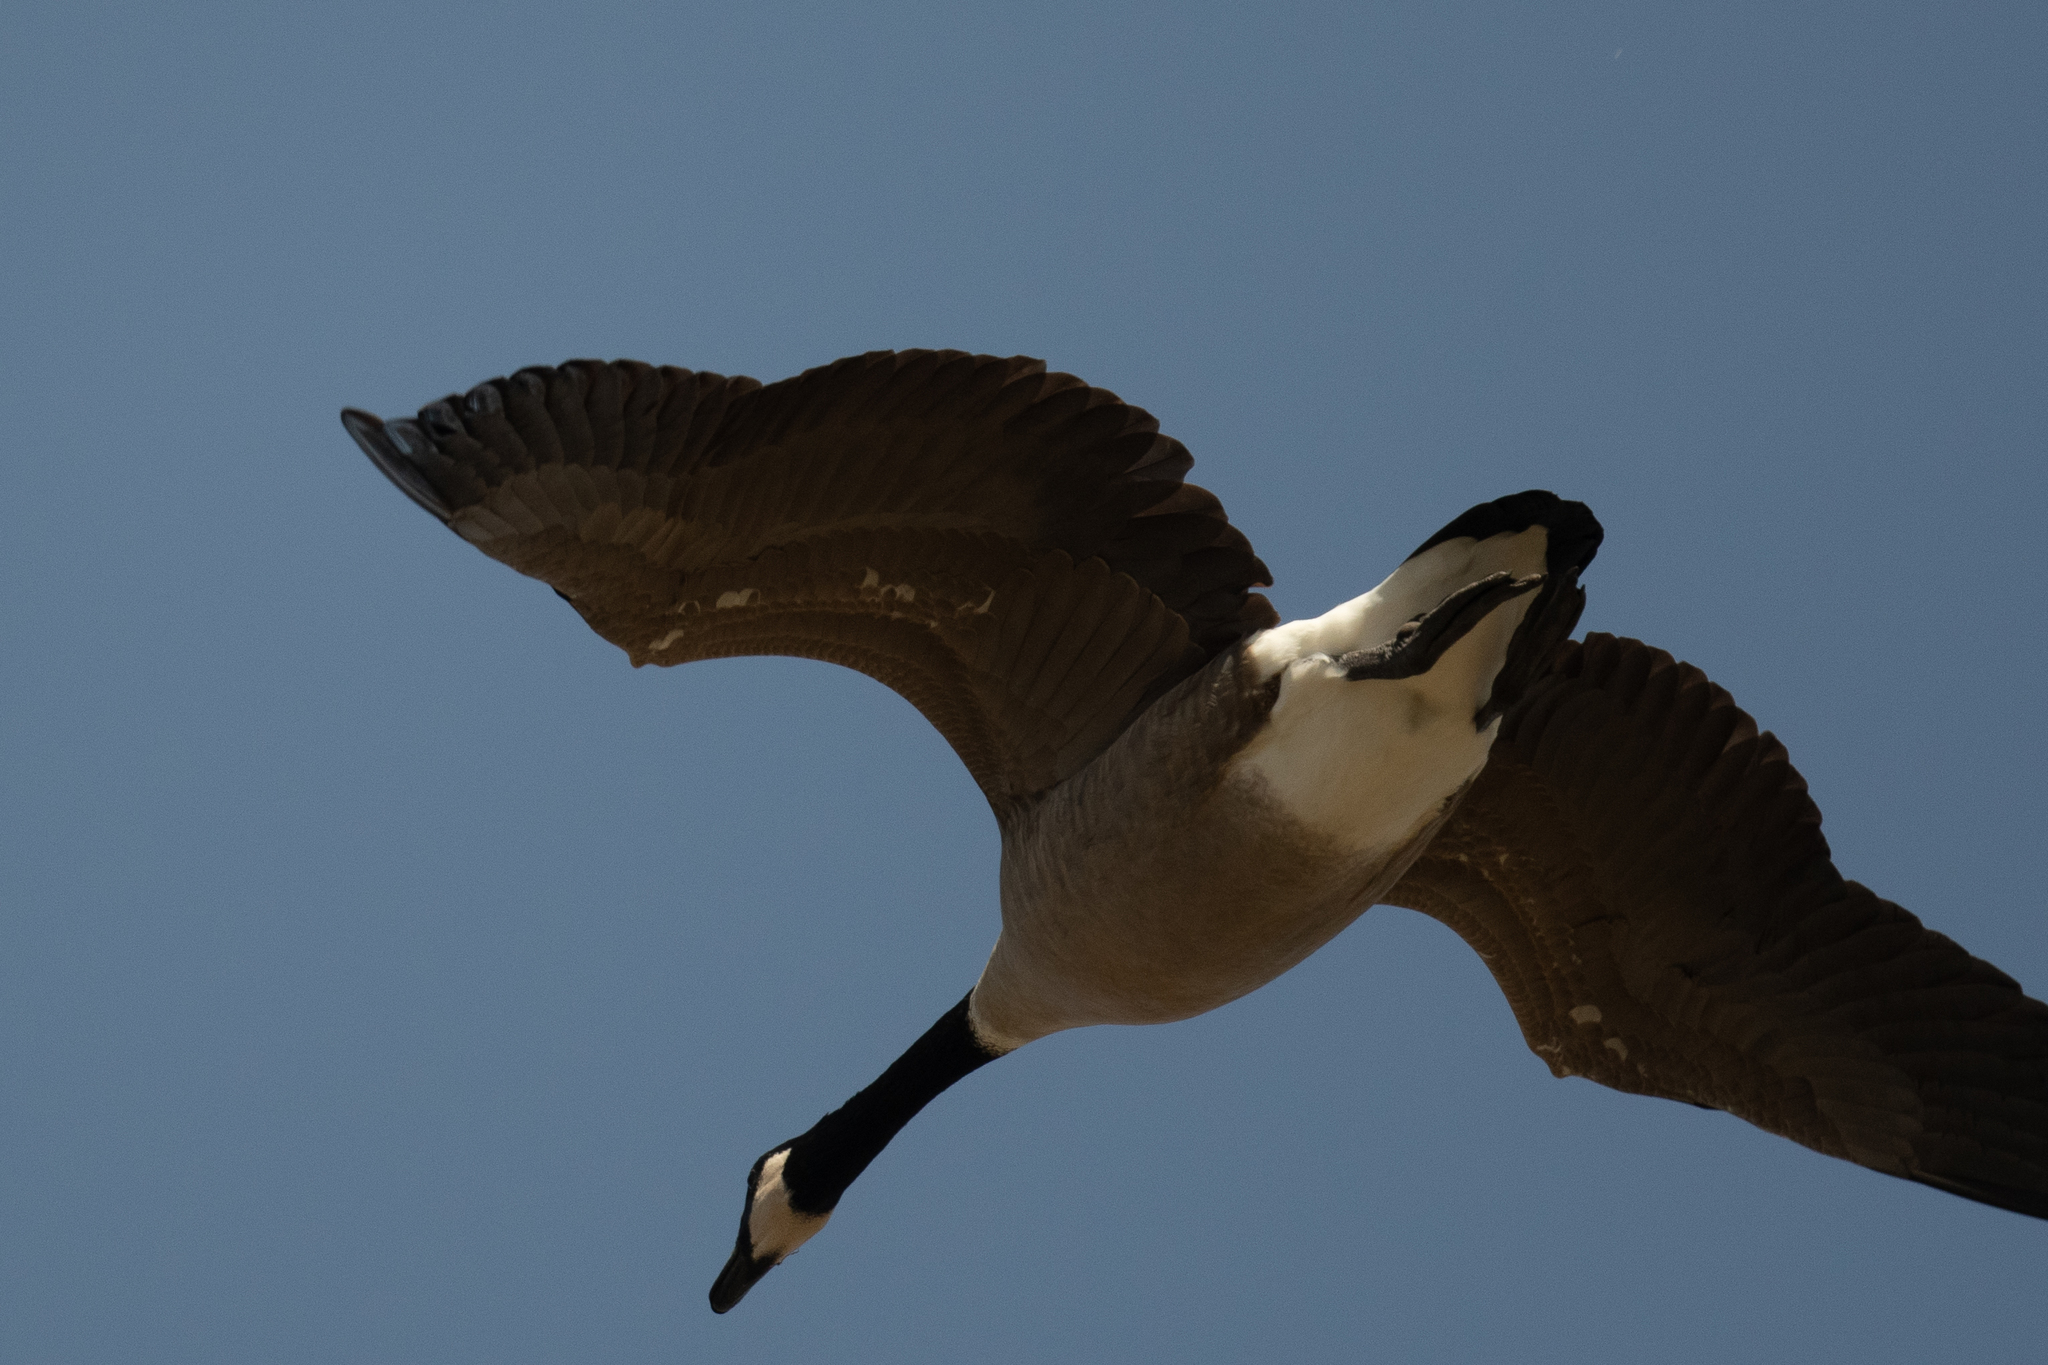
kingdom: Animalia
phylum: Chordata
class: Aves
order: Anseriformes
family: Anatidae
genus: Branta
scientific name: Branta canadensis
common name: Canada goose
